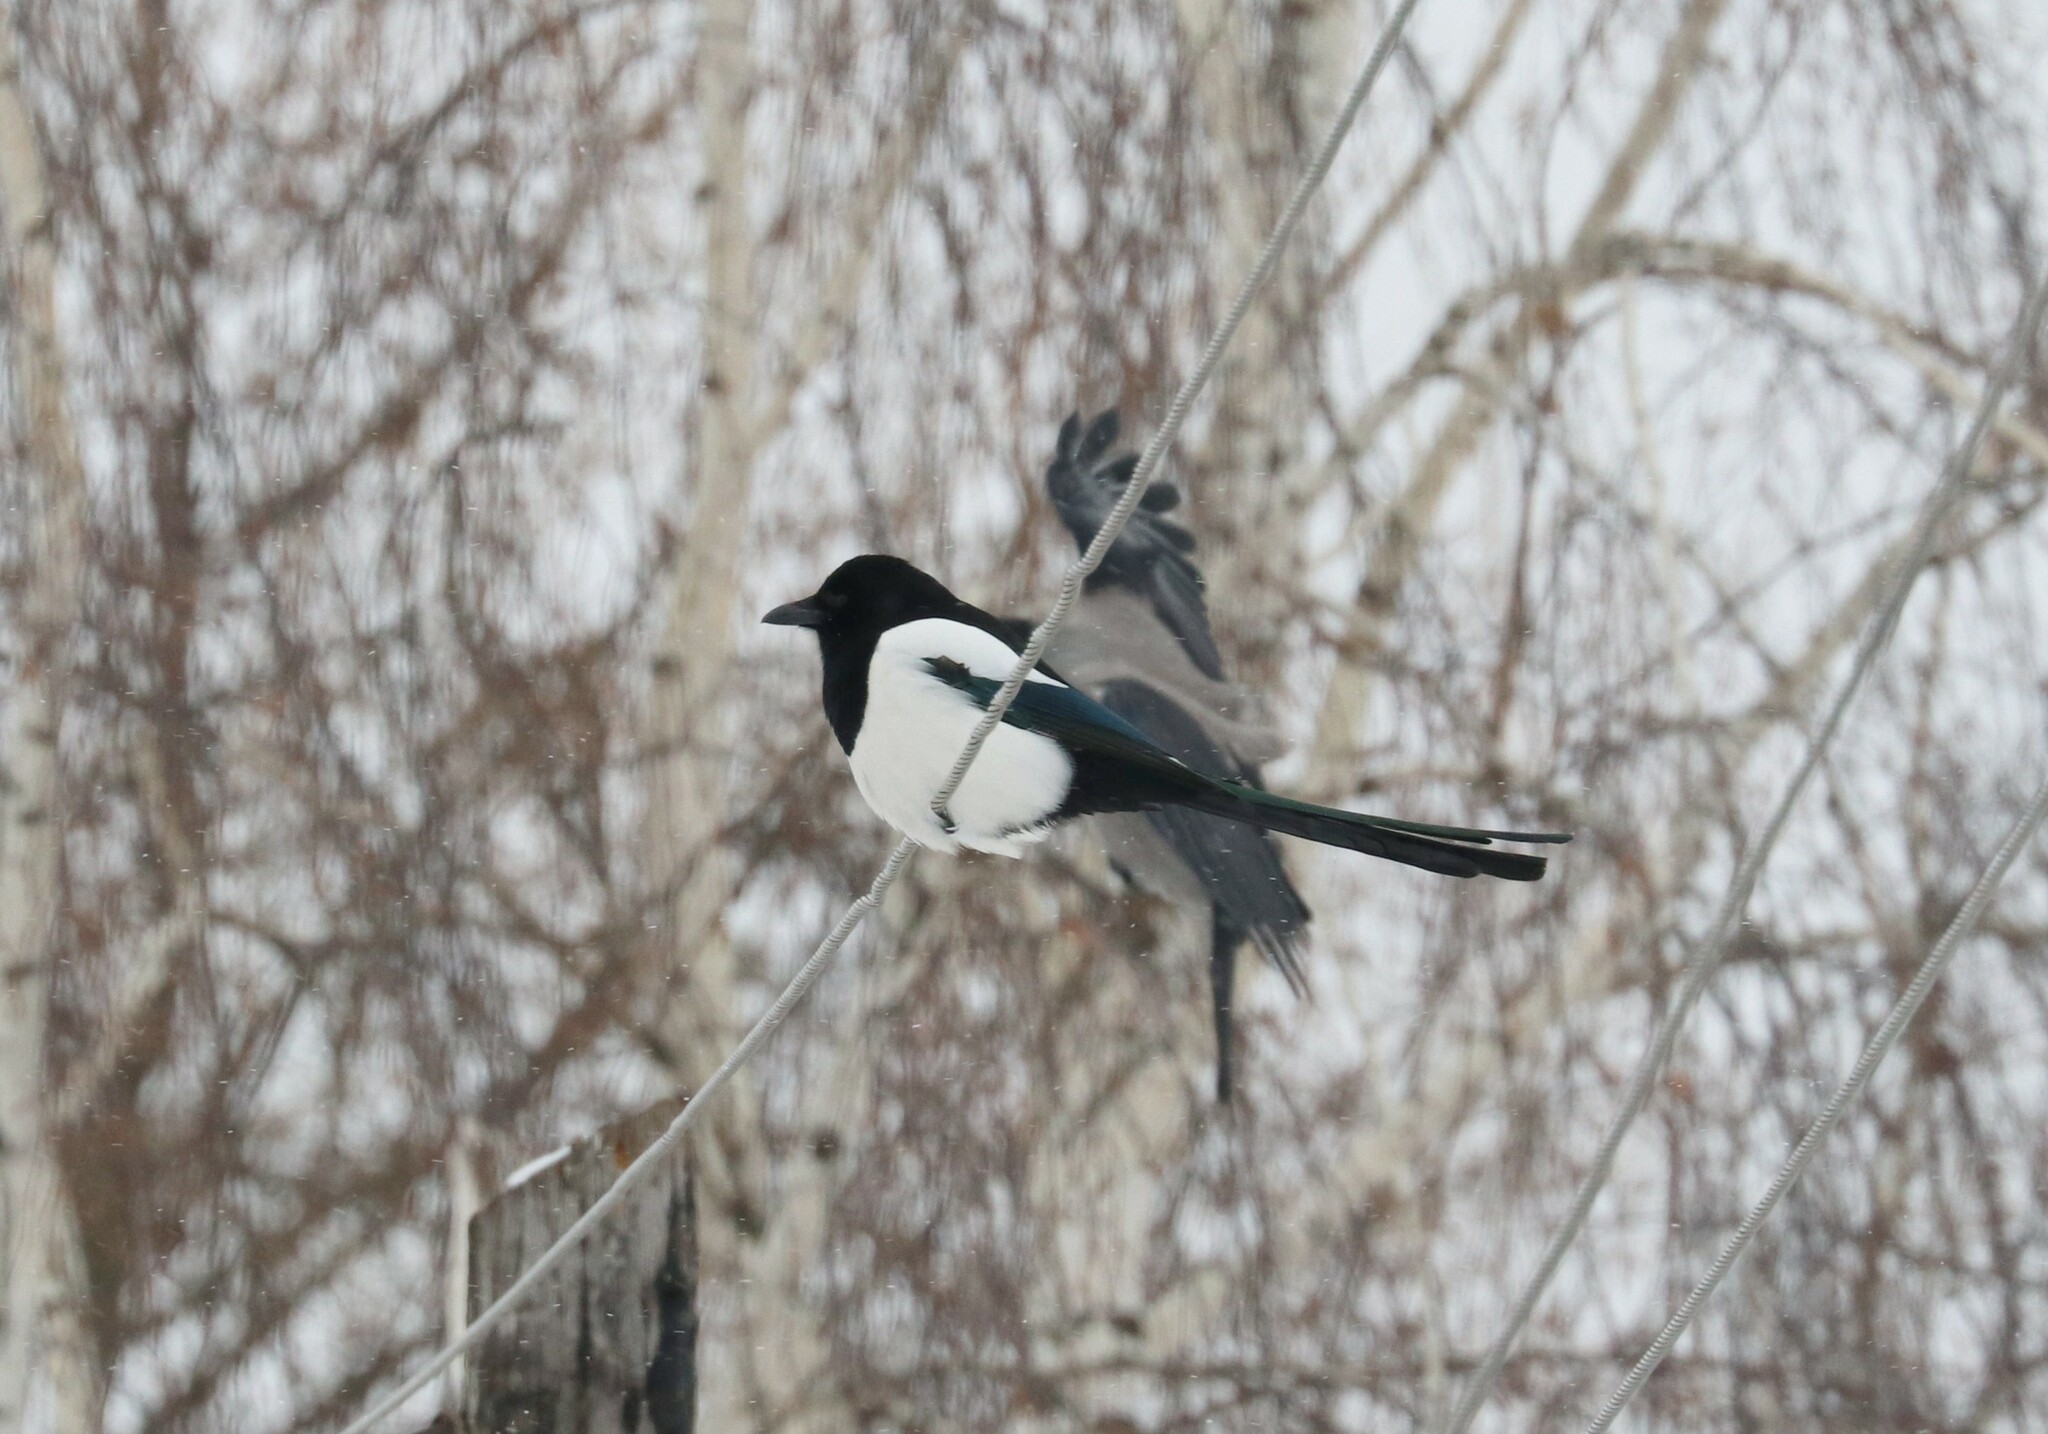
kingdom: Animalia
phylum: Chordata
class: Aves
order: Passeriformes
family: Corvidae
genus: Pica
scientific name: Pica pica
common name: Eurasian magpie
